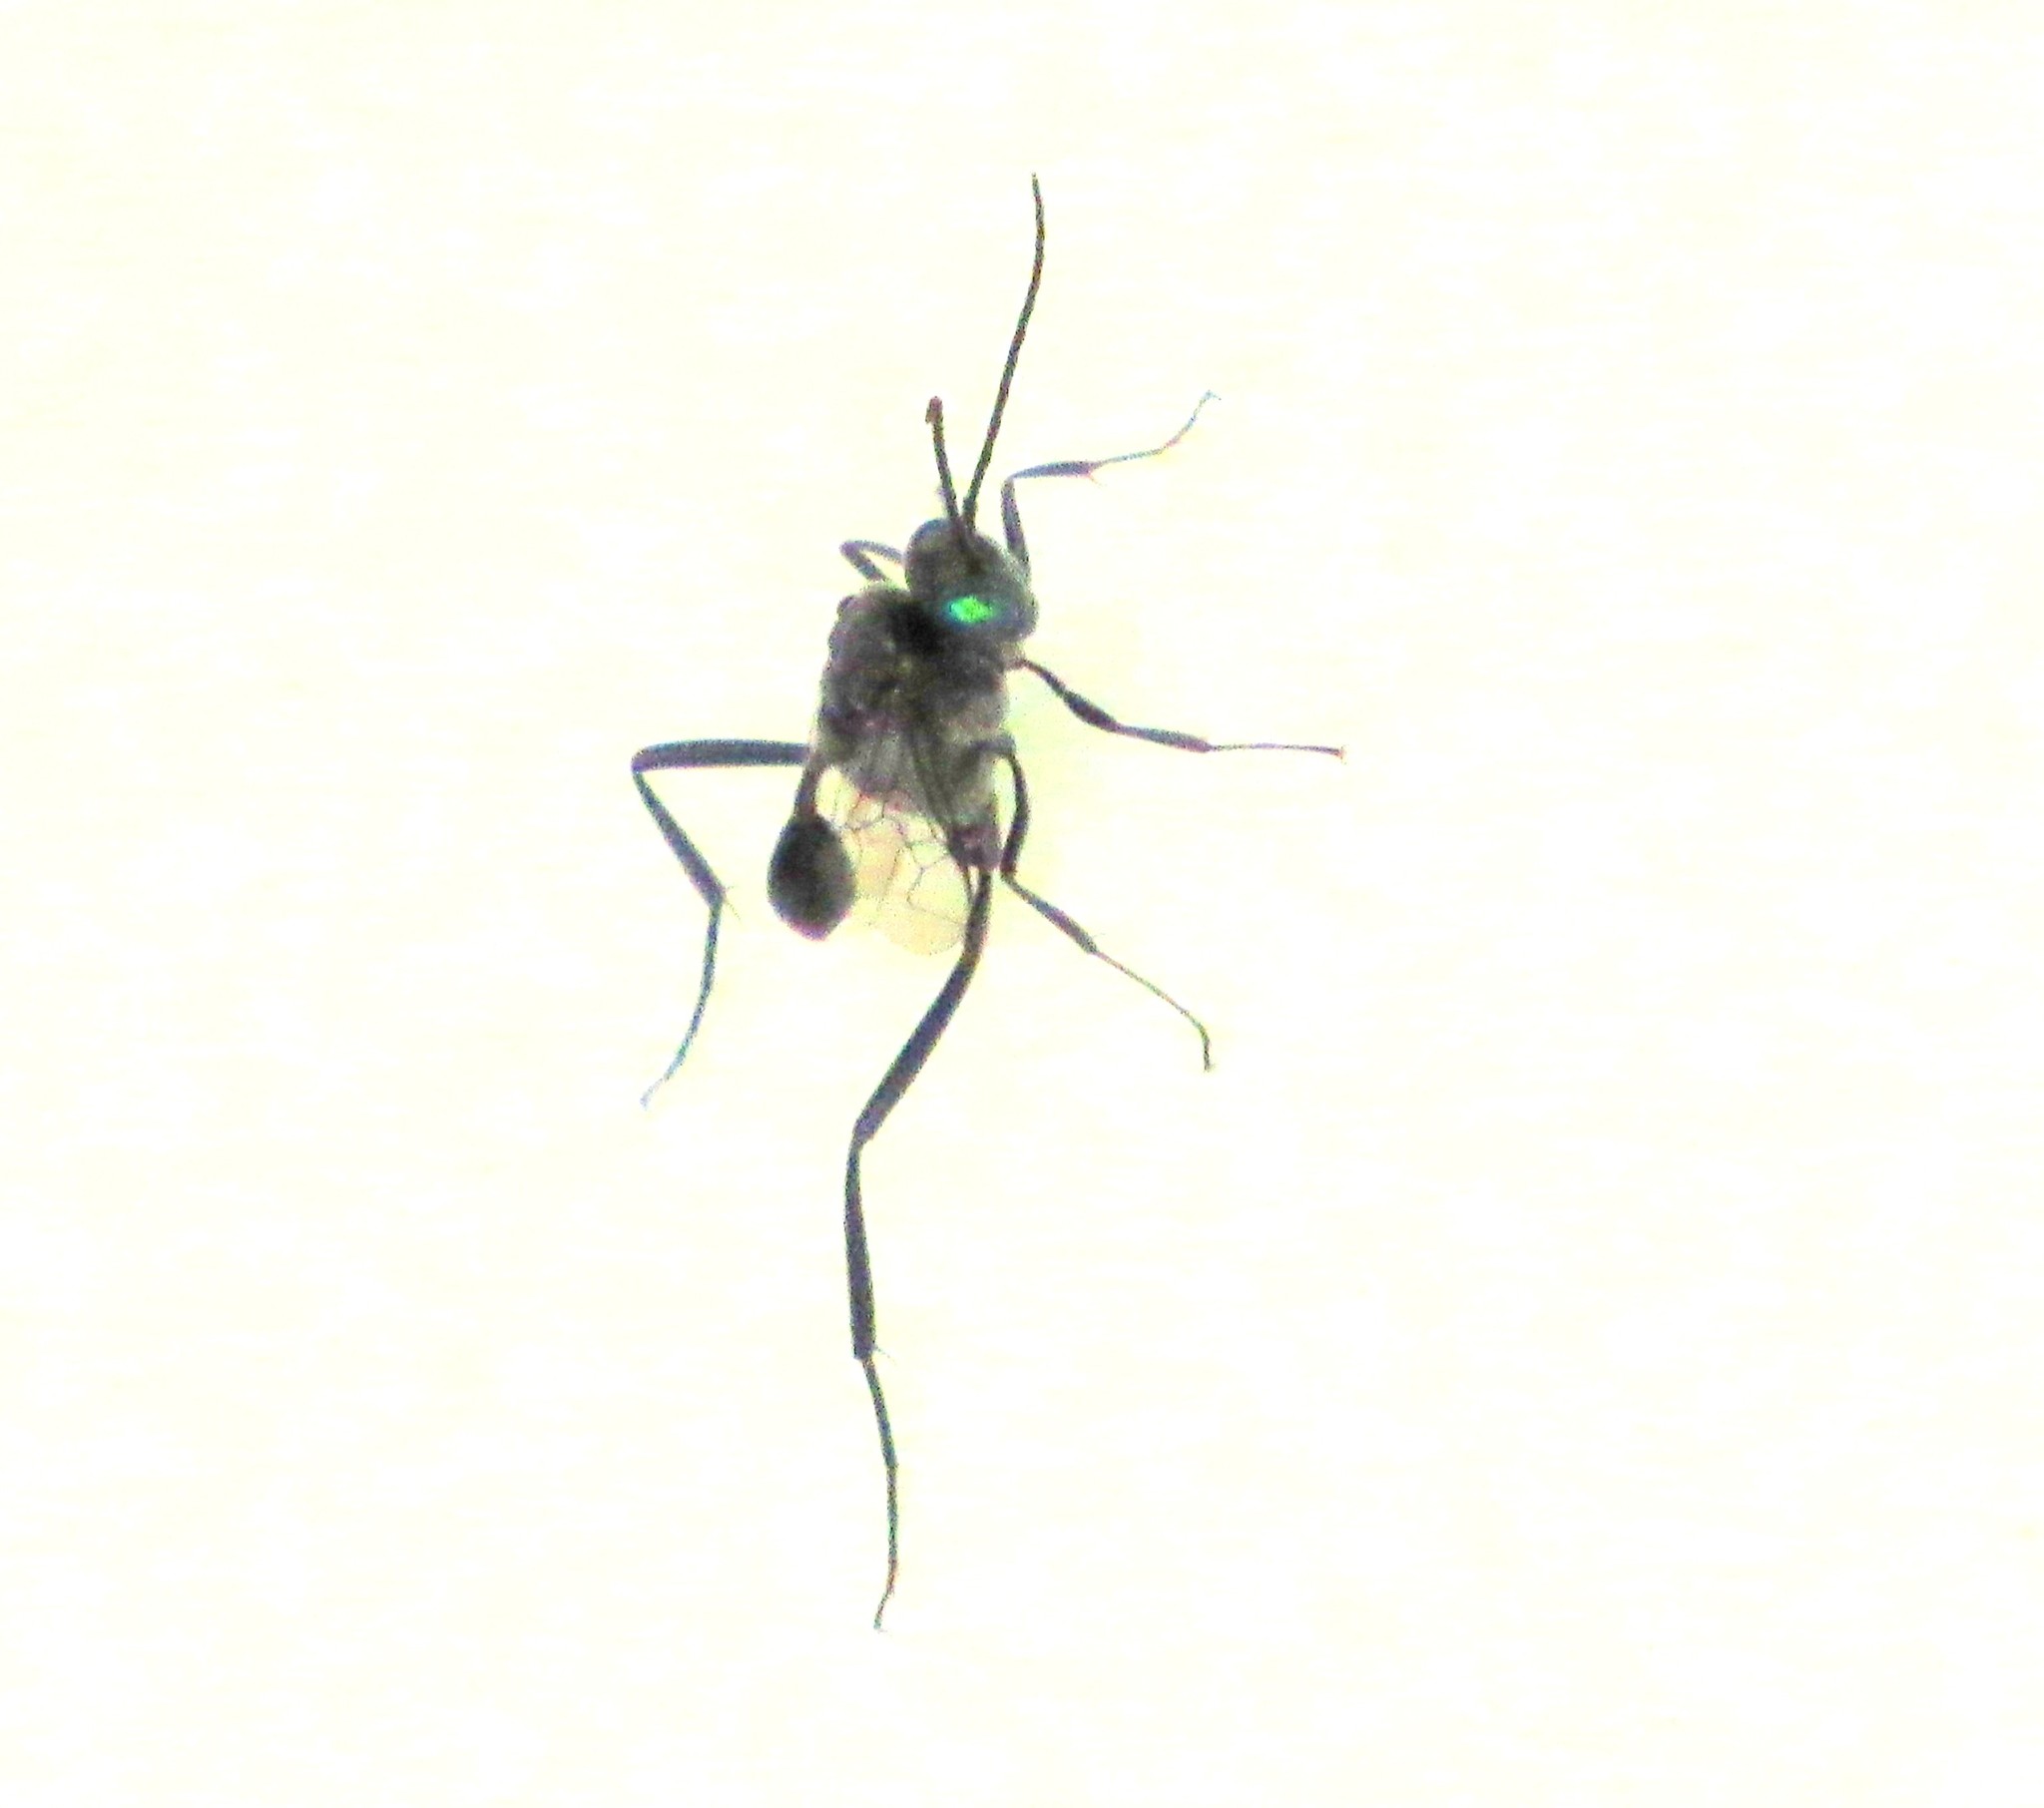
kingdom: Animalia
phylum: Arthropoda
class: Insecta
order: Hymenoptera
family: Evaniidae
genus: Evania
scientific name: Evania appendigaster
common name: Ensign wasp
